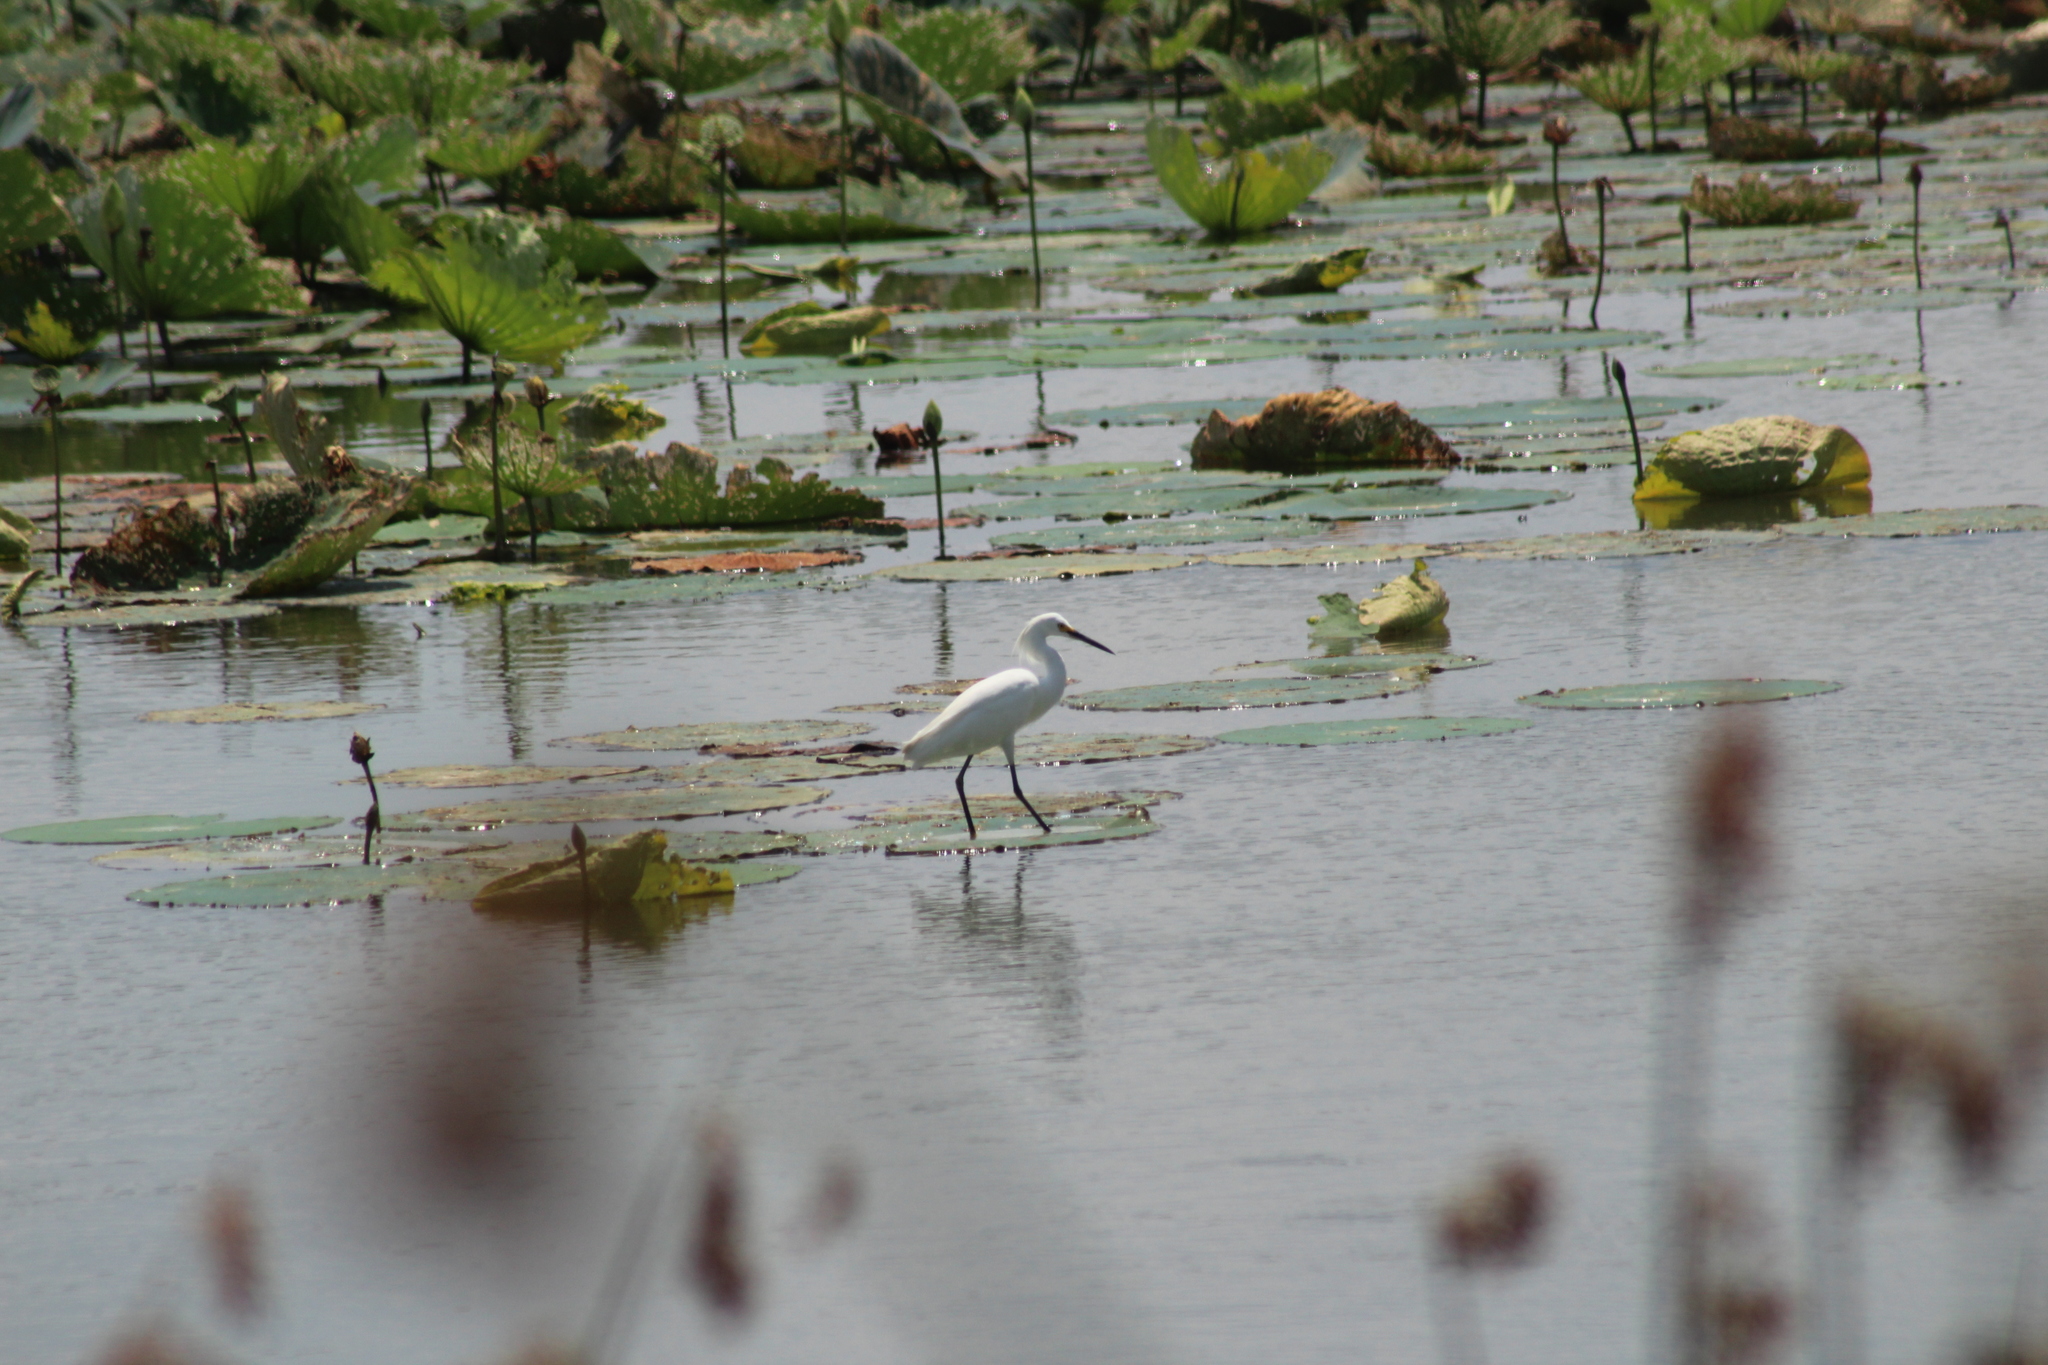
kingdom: Animalia
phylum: Chordata
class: Aves
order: Pelecaniformes
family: Ardeidae
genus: Egretta
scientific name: Egretta thula
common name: Snowy egret
